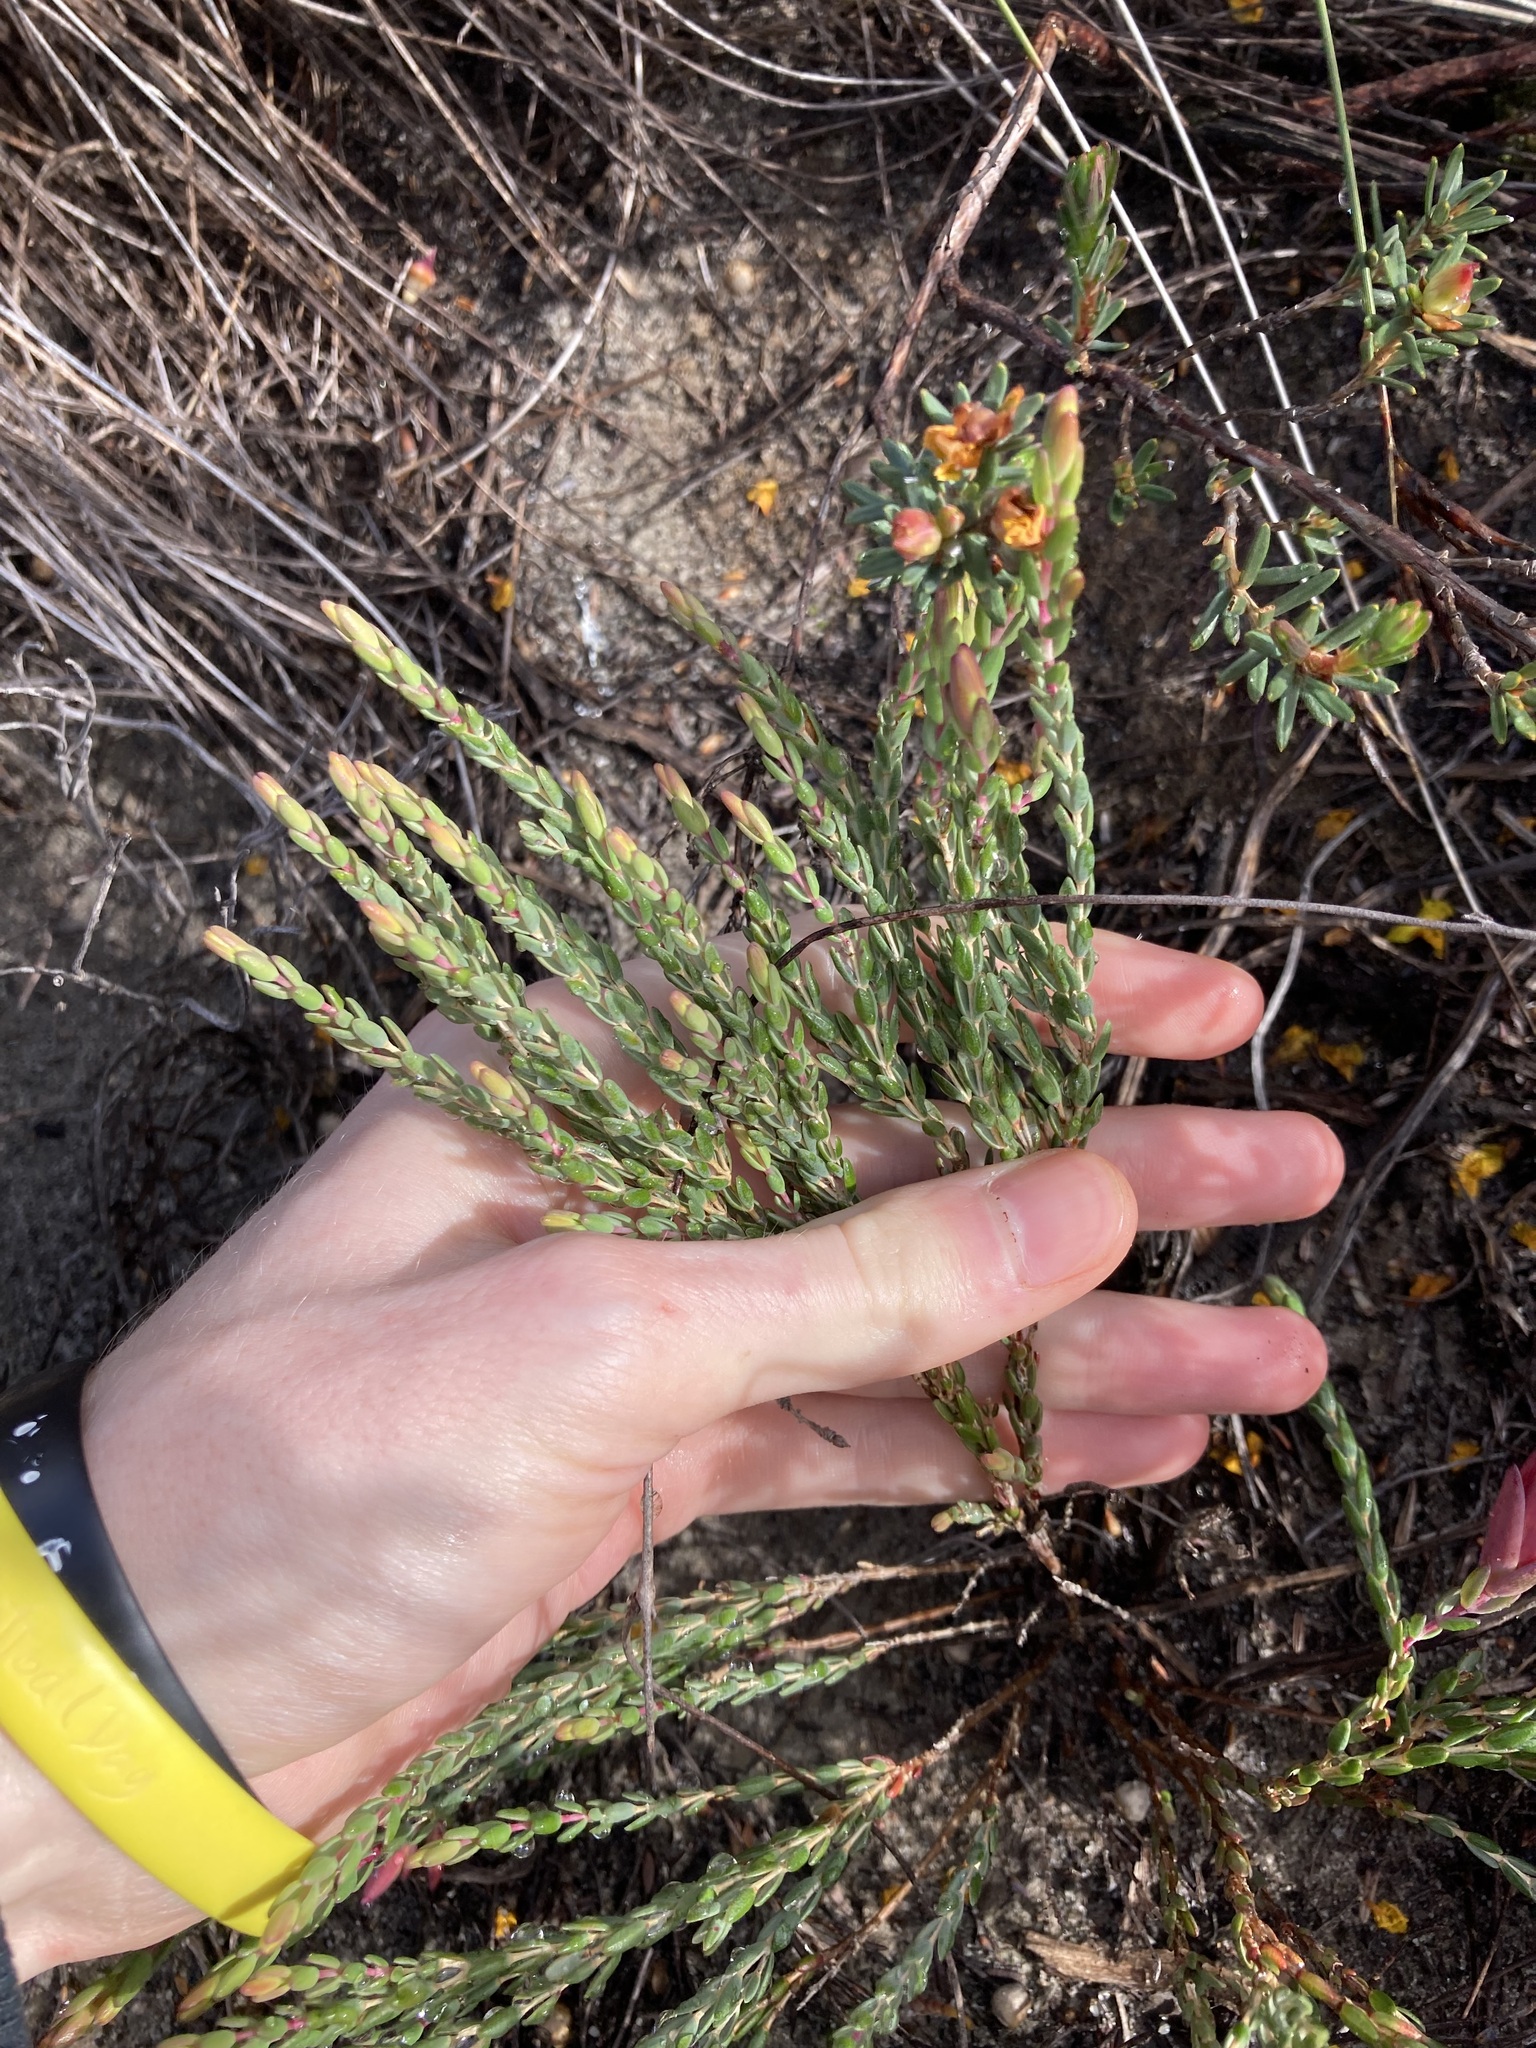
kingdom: Plantae
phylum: Tracheophyta
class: Magnoliopsida
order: Myrtales
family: Myrtaceae
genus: Darwinia
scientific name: Darwinia speciosa
